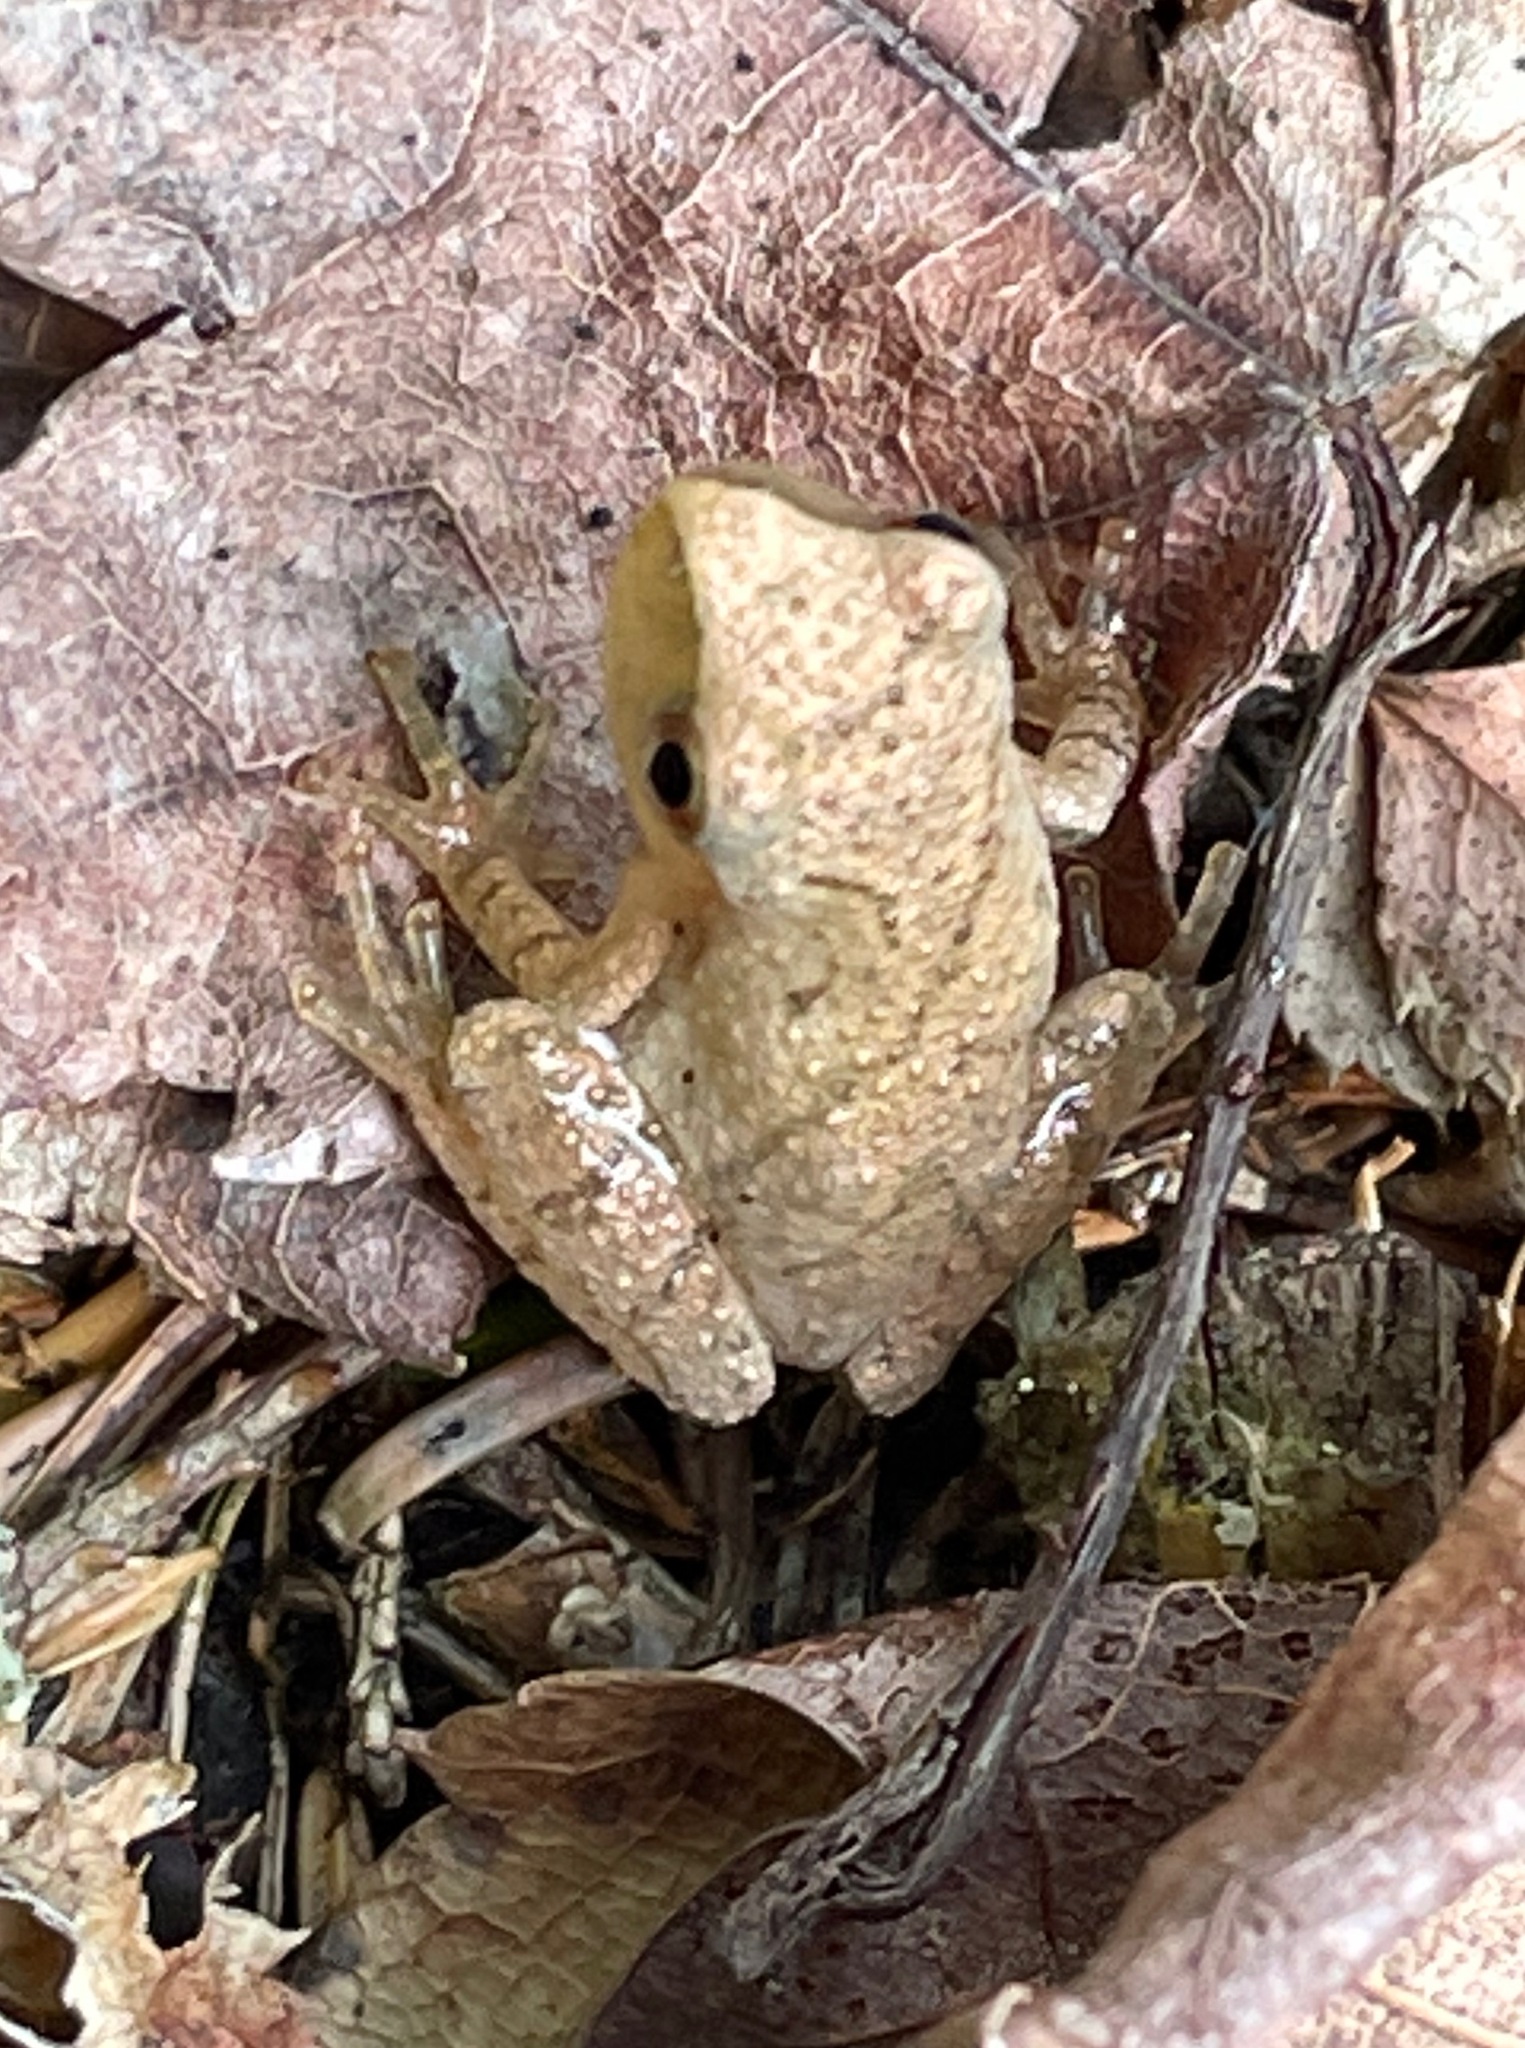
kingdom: Animalia
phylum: Chordata
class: Amphibia
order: Anura
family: Hylidae
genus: Pseudacris
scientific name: Pseudacris crucifer
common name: Spring peeper
